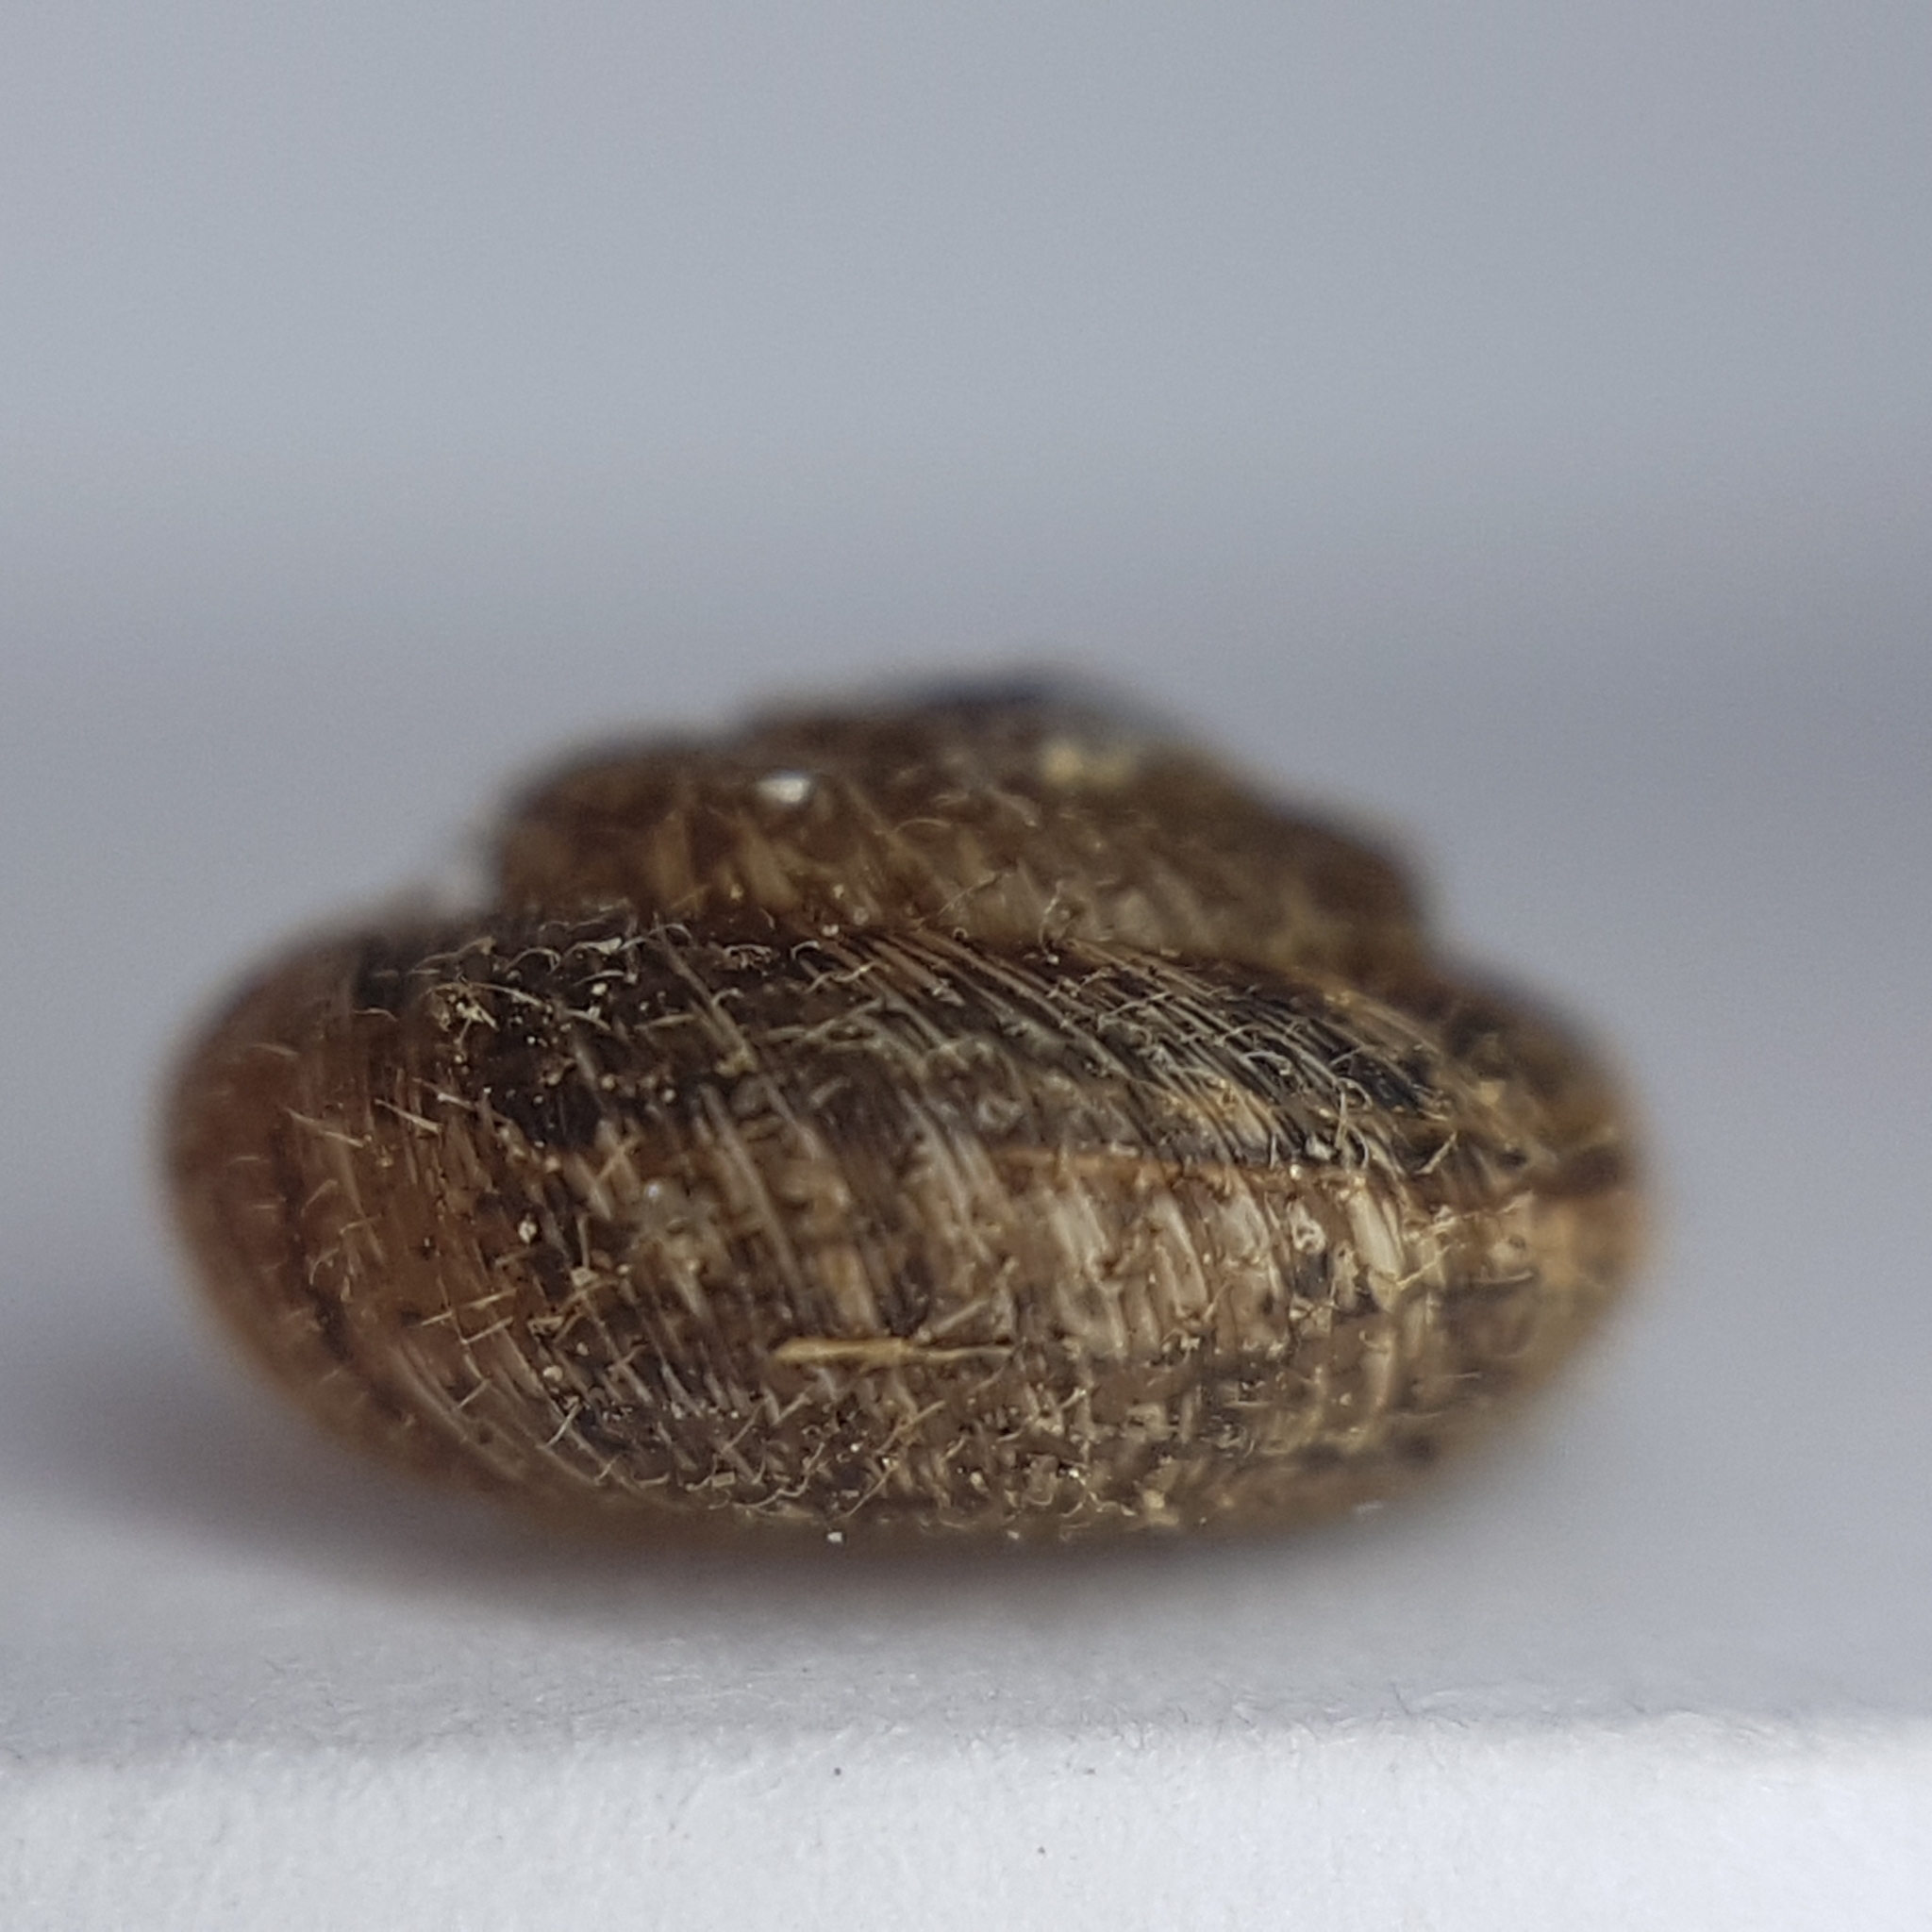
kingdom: Animalia
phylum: Mollusca
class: Gastropoda
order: Stylommatophora
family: Geomitridae
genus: Xerotricha
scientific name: Xerotricha conspurcata
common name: Snail
